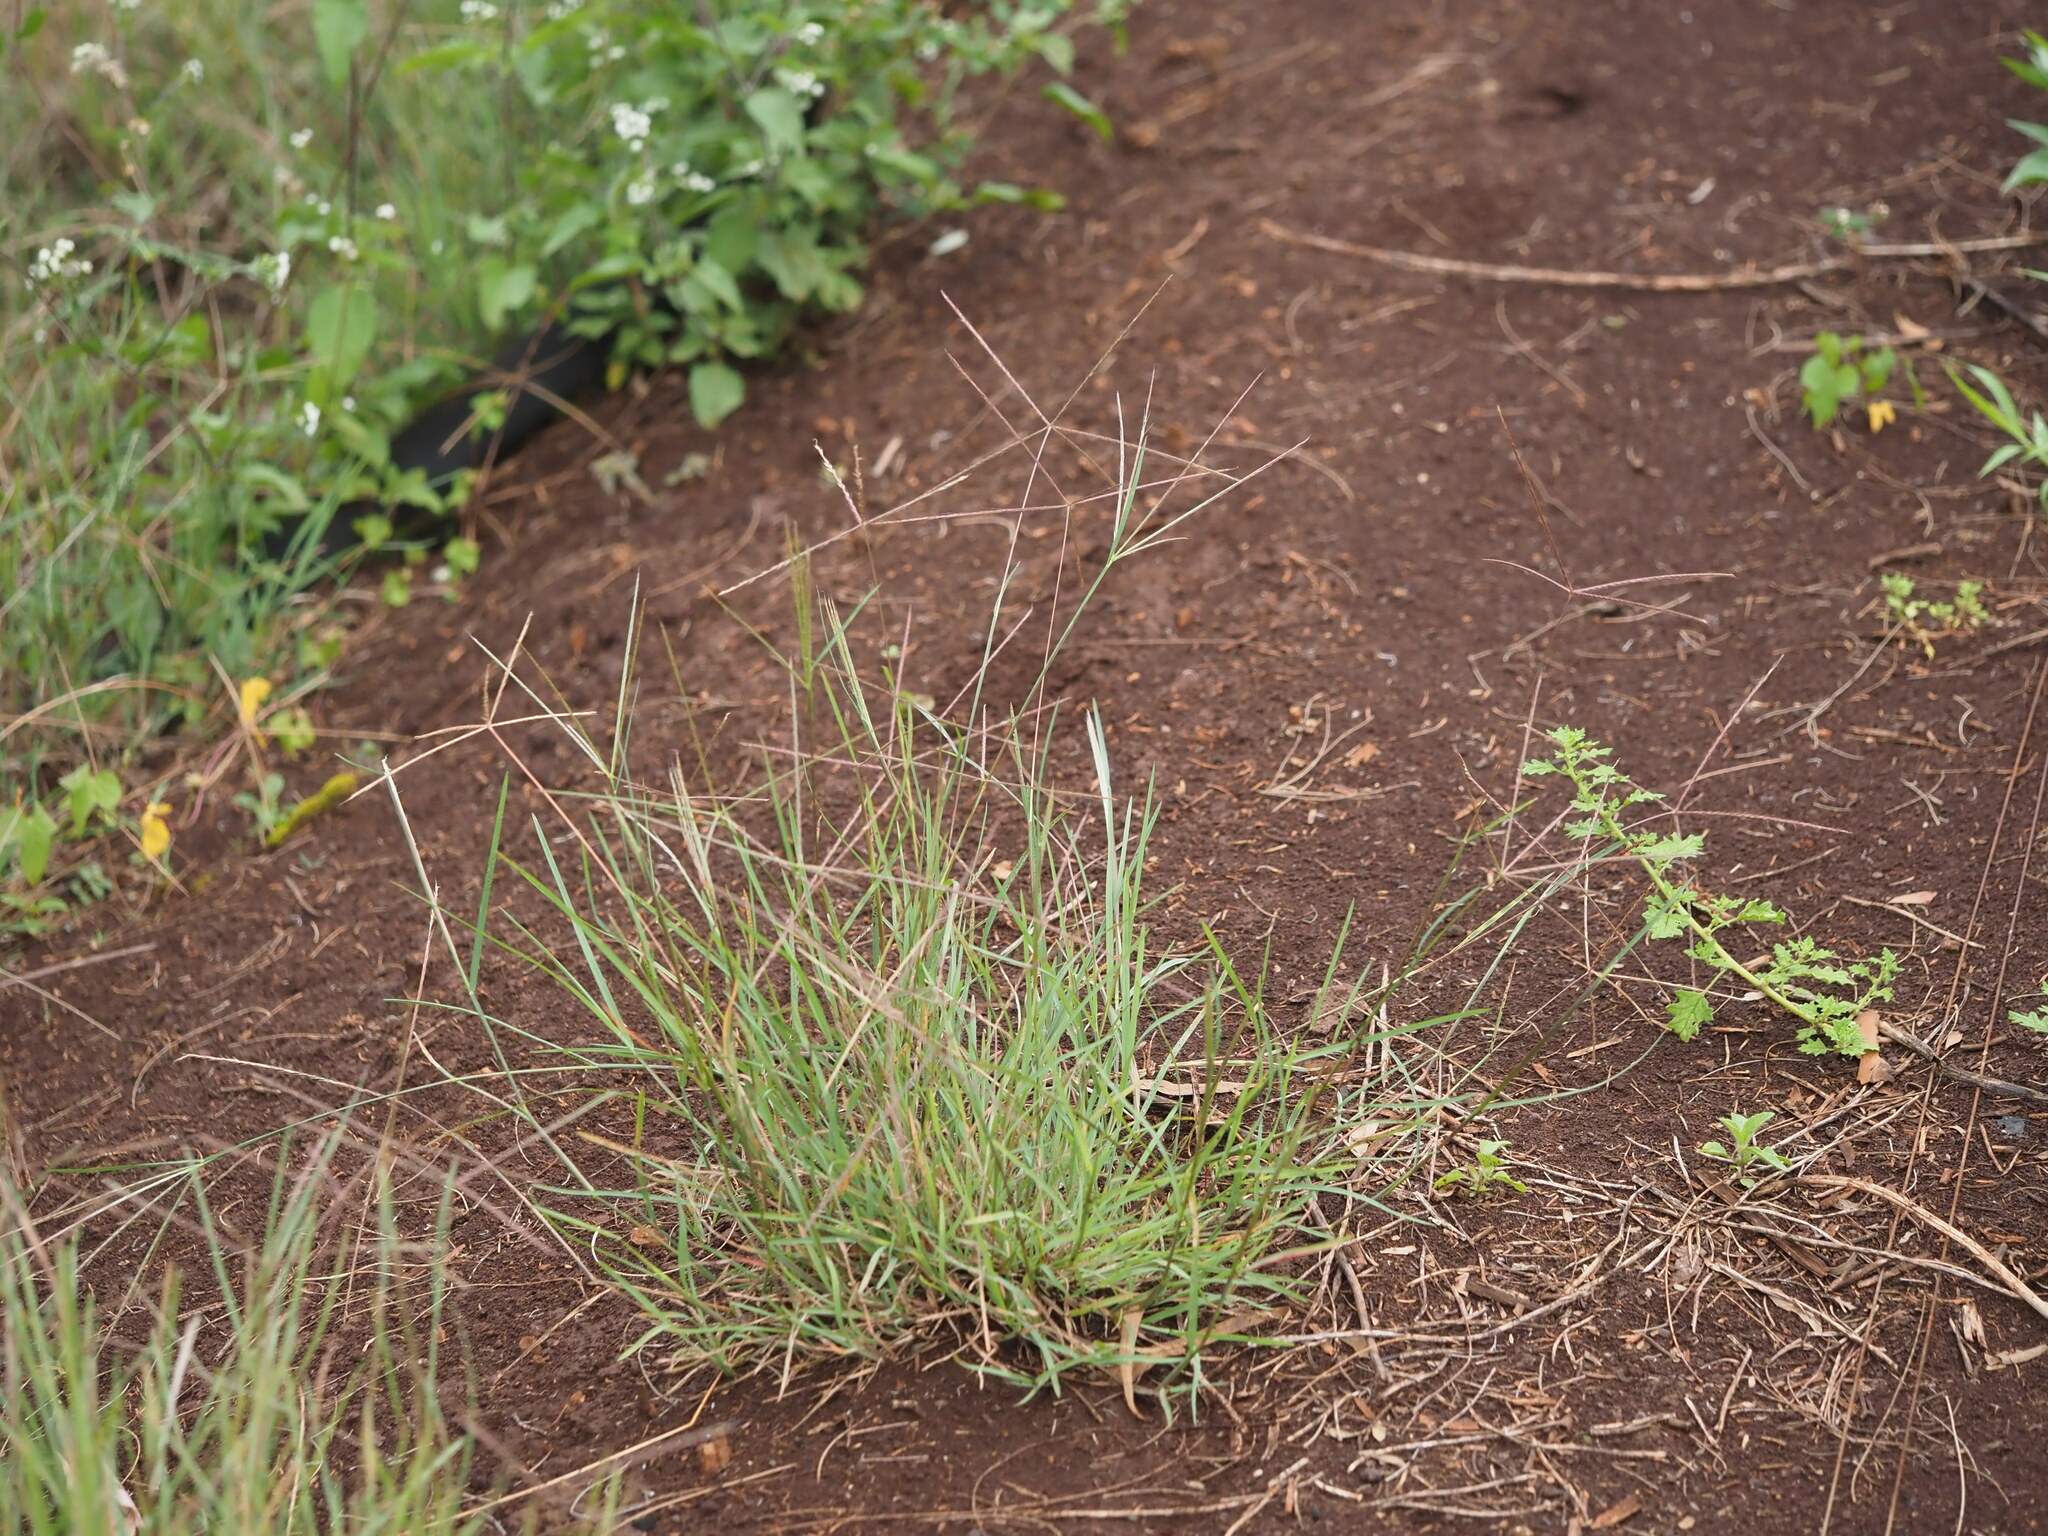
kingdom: Plantae
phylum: Tracheophyta
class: Liliopsida
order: Poales
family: Poaceae
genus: Chloris
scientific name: Chloris divaricata
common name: Spreading windmill grass
